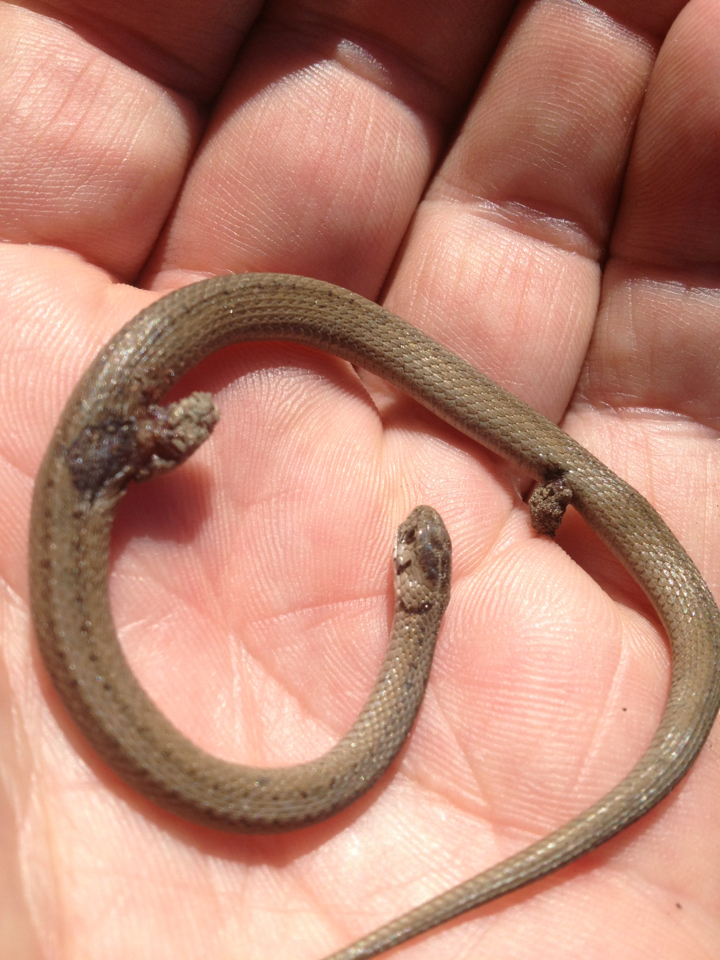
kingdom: Animalia
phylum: Chordata
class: Squamata
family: Colubridae
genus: Storeria
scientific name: Storeria dekayi
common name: (dekay’s) brown snake
